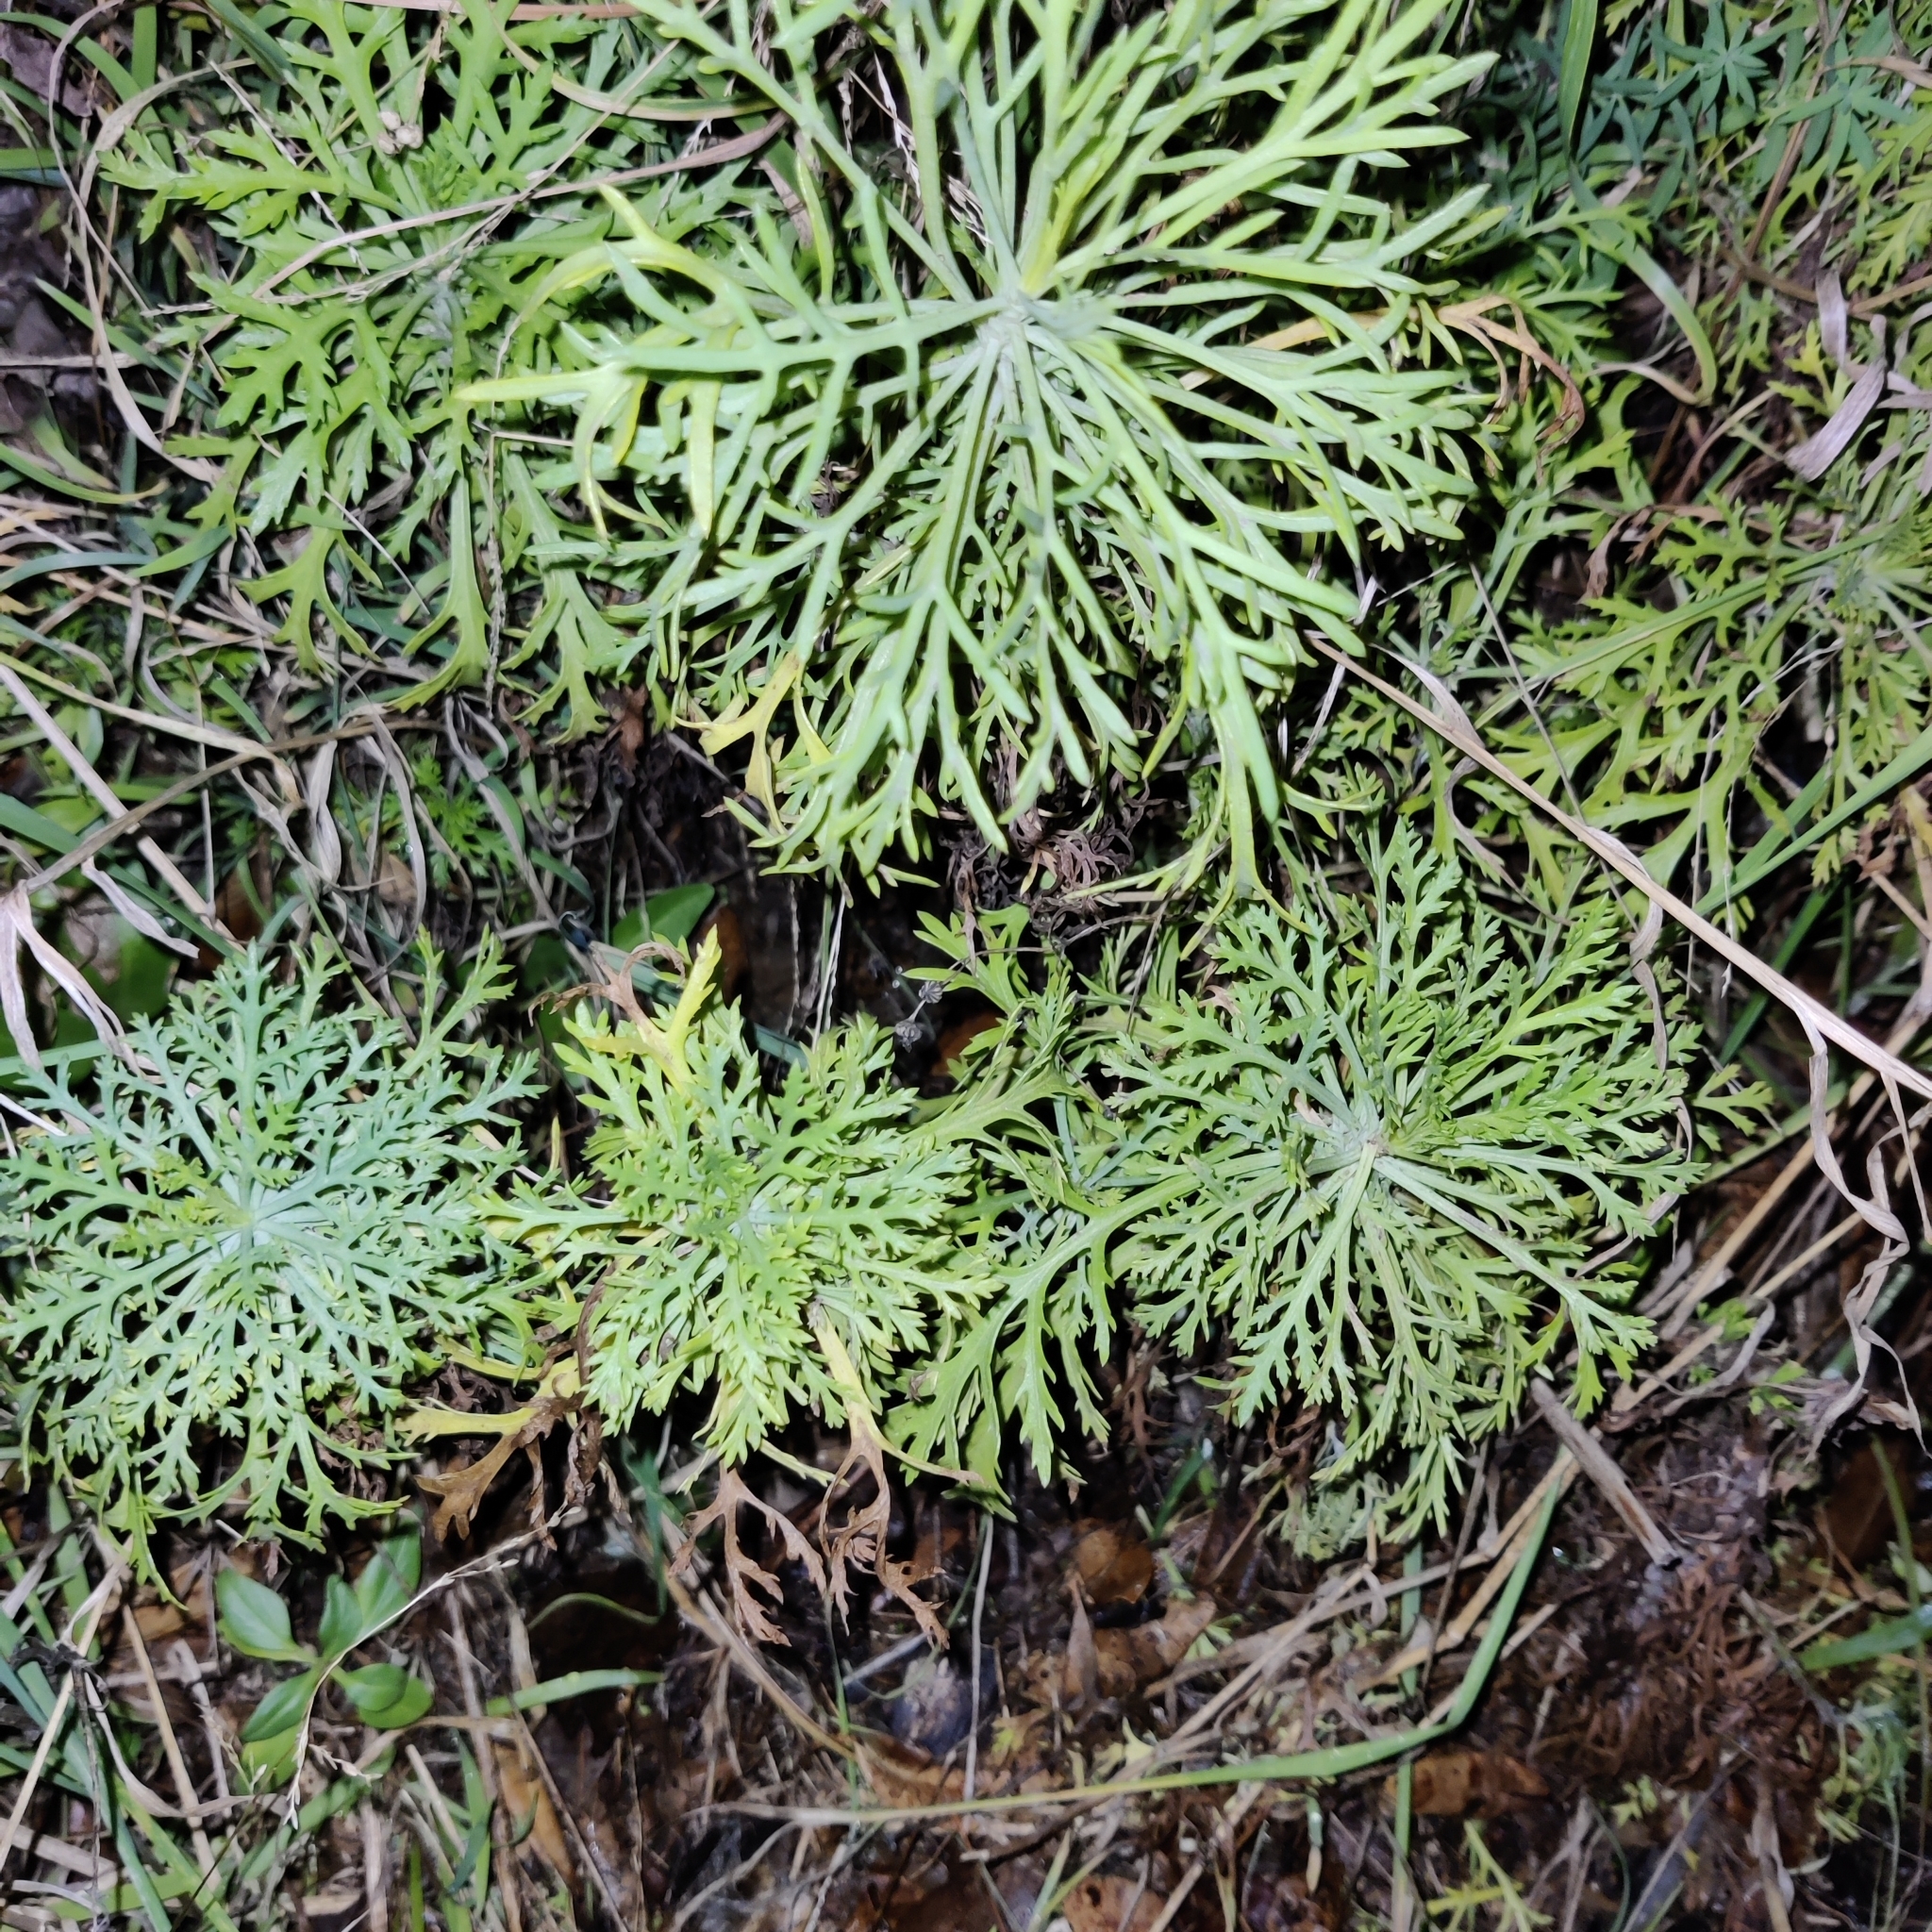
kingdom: Plantae
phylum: Tracheophyta
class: Magnoliopsida
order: Asterales
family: Asteraceae
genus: Argyranthemum
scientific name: Argyranthemum frutescens
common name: Paris daisy
